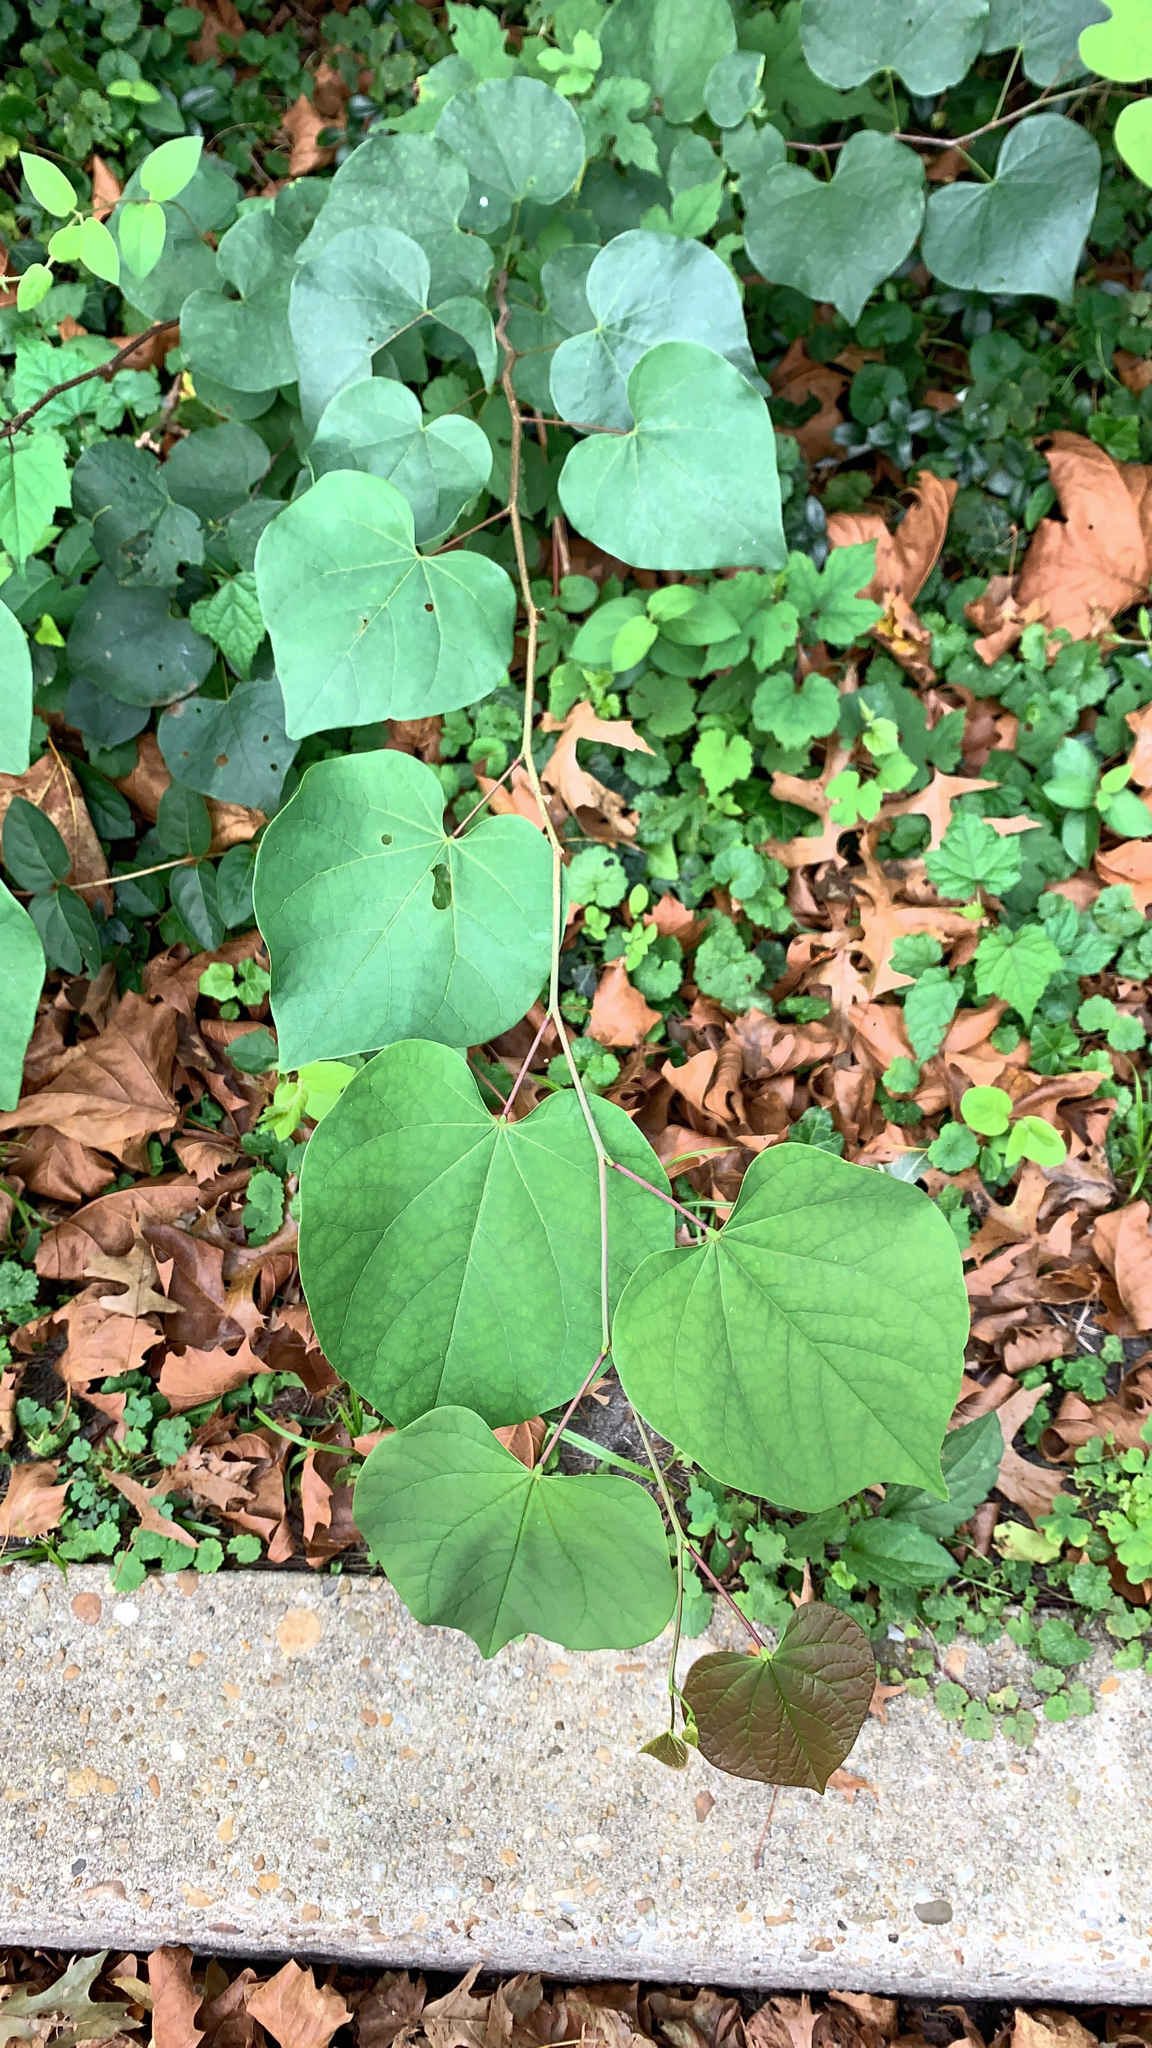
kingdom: Plantae
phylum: Tracheophyta
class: Magnoliopsida
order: Fabales
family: Fabaceae
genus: Cercis
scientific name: Cercis canadensis
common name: Eastern redbud
